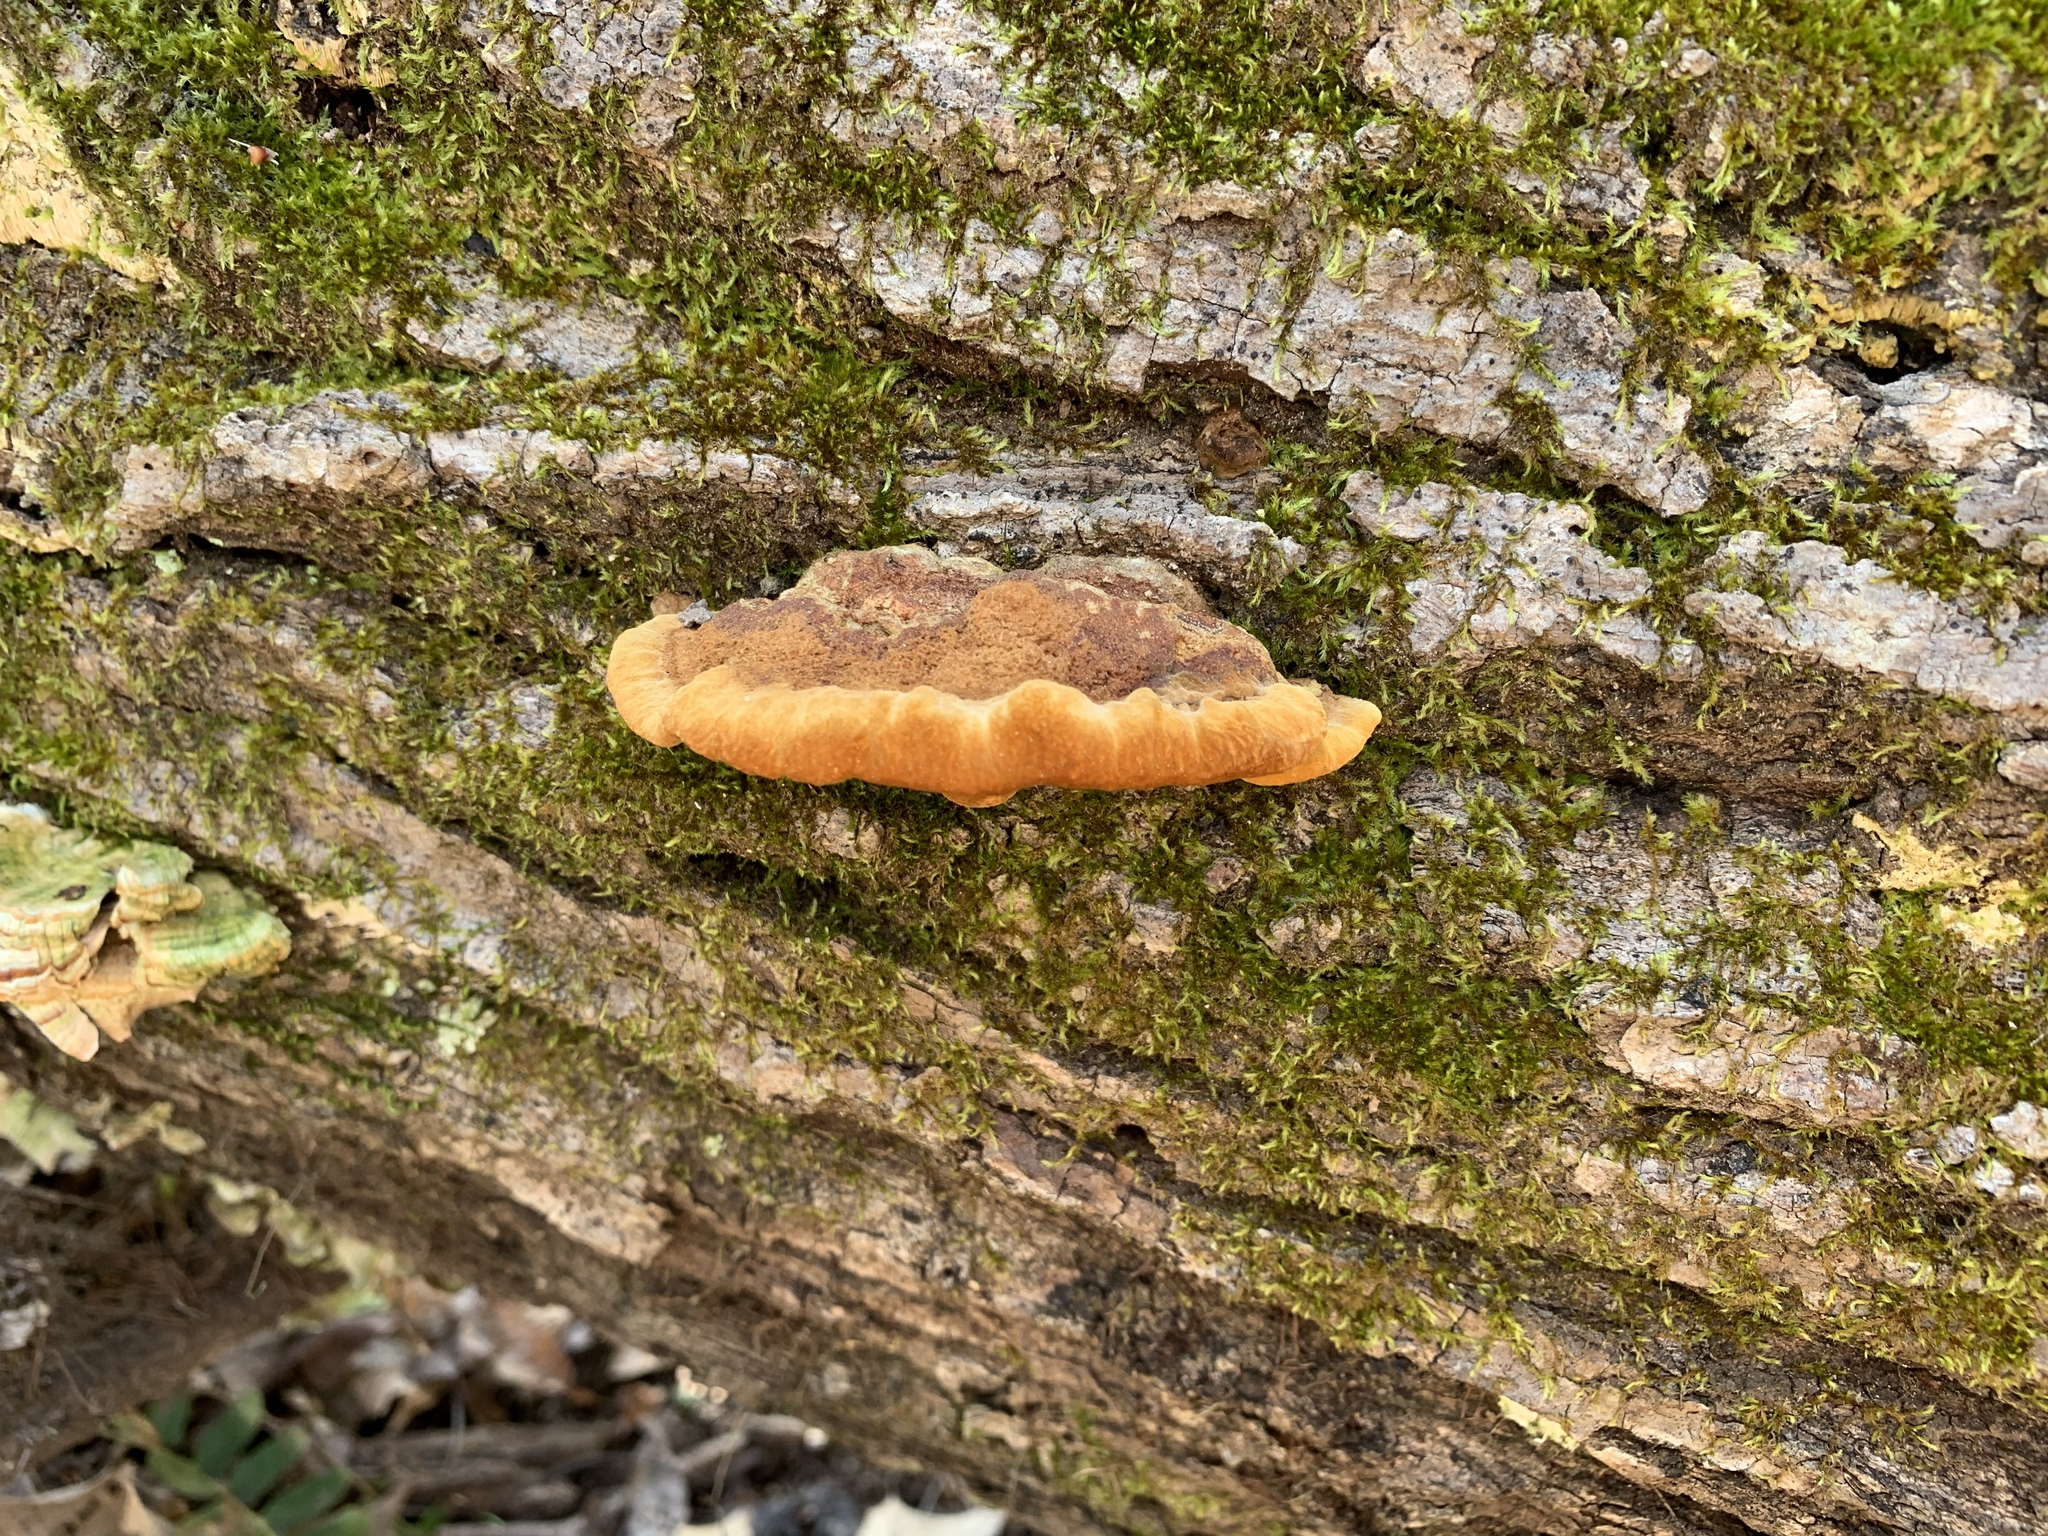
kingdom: Fungi
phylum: Basidiomycota
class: Agaricomycetes
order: Hymenochaetales
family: Hymenochaetaceae
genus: Phellinus
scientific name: Phellinus gilvus
